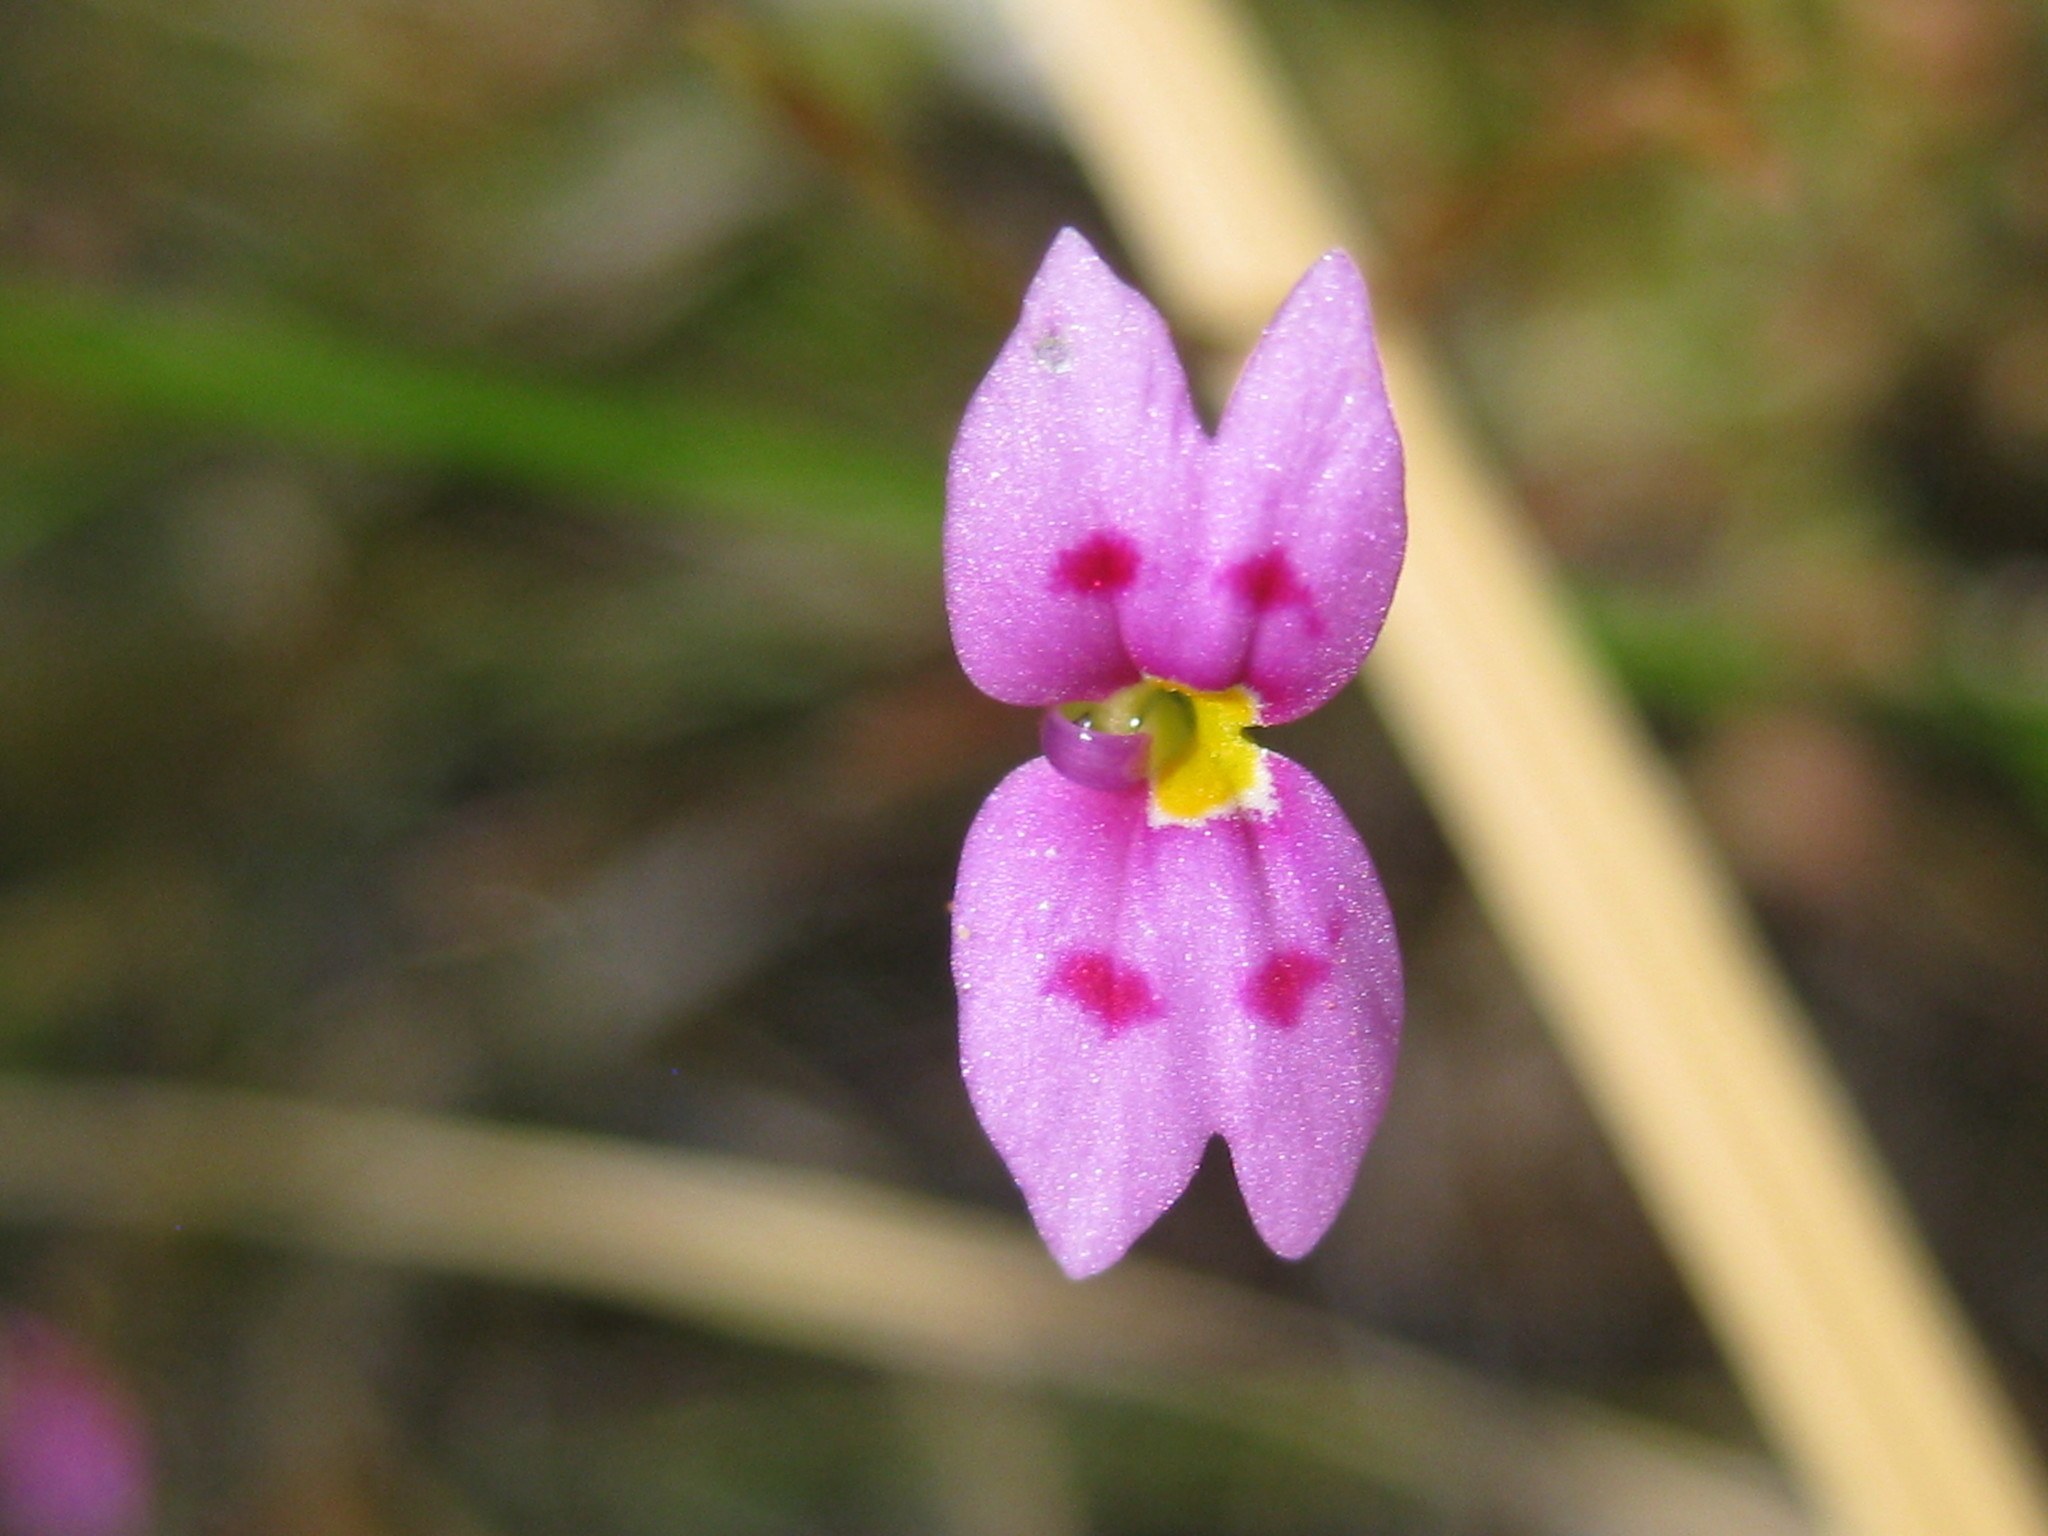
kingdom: Plantae
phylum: Tracheophyta
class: Magnoliopsida
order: Asterales
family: Stylidiaceae
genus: Stylidium
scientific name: Stylidium fluminense
